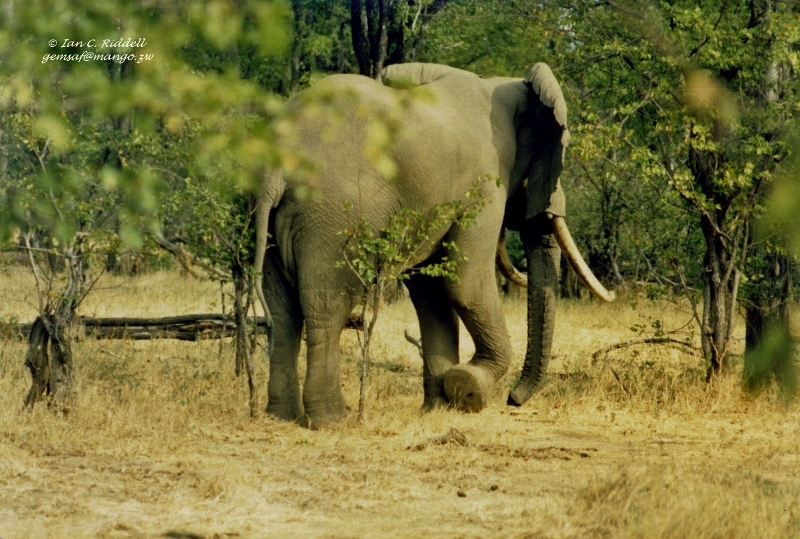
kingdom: Animalia
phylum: Chordata
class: Mammalia
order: Proboscidea
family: Elephantidae
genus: Loxodonta
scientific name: Loxodonta africana
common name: African elephant
